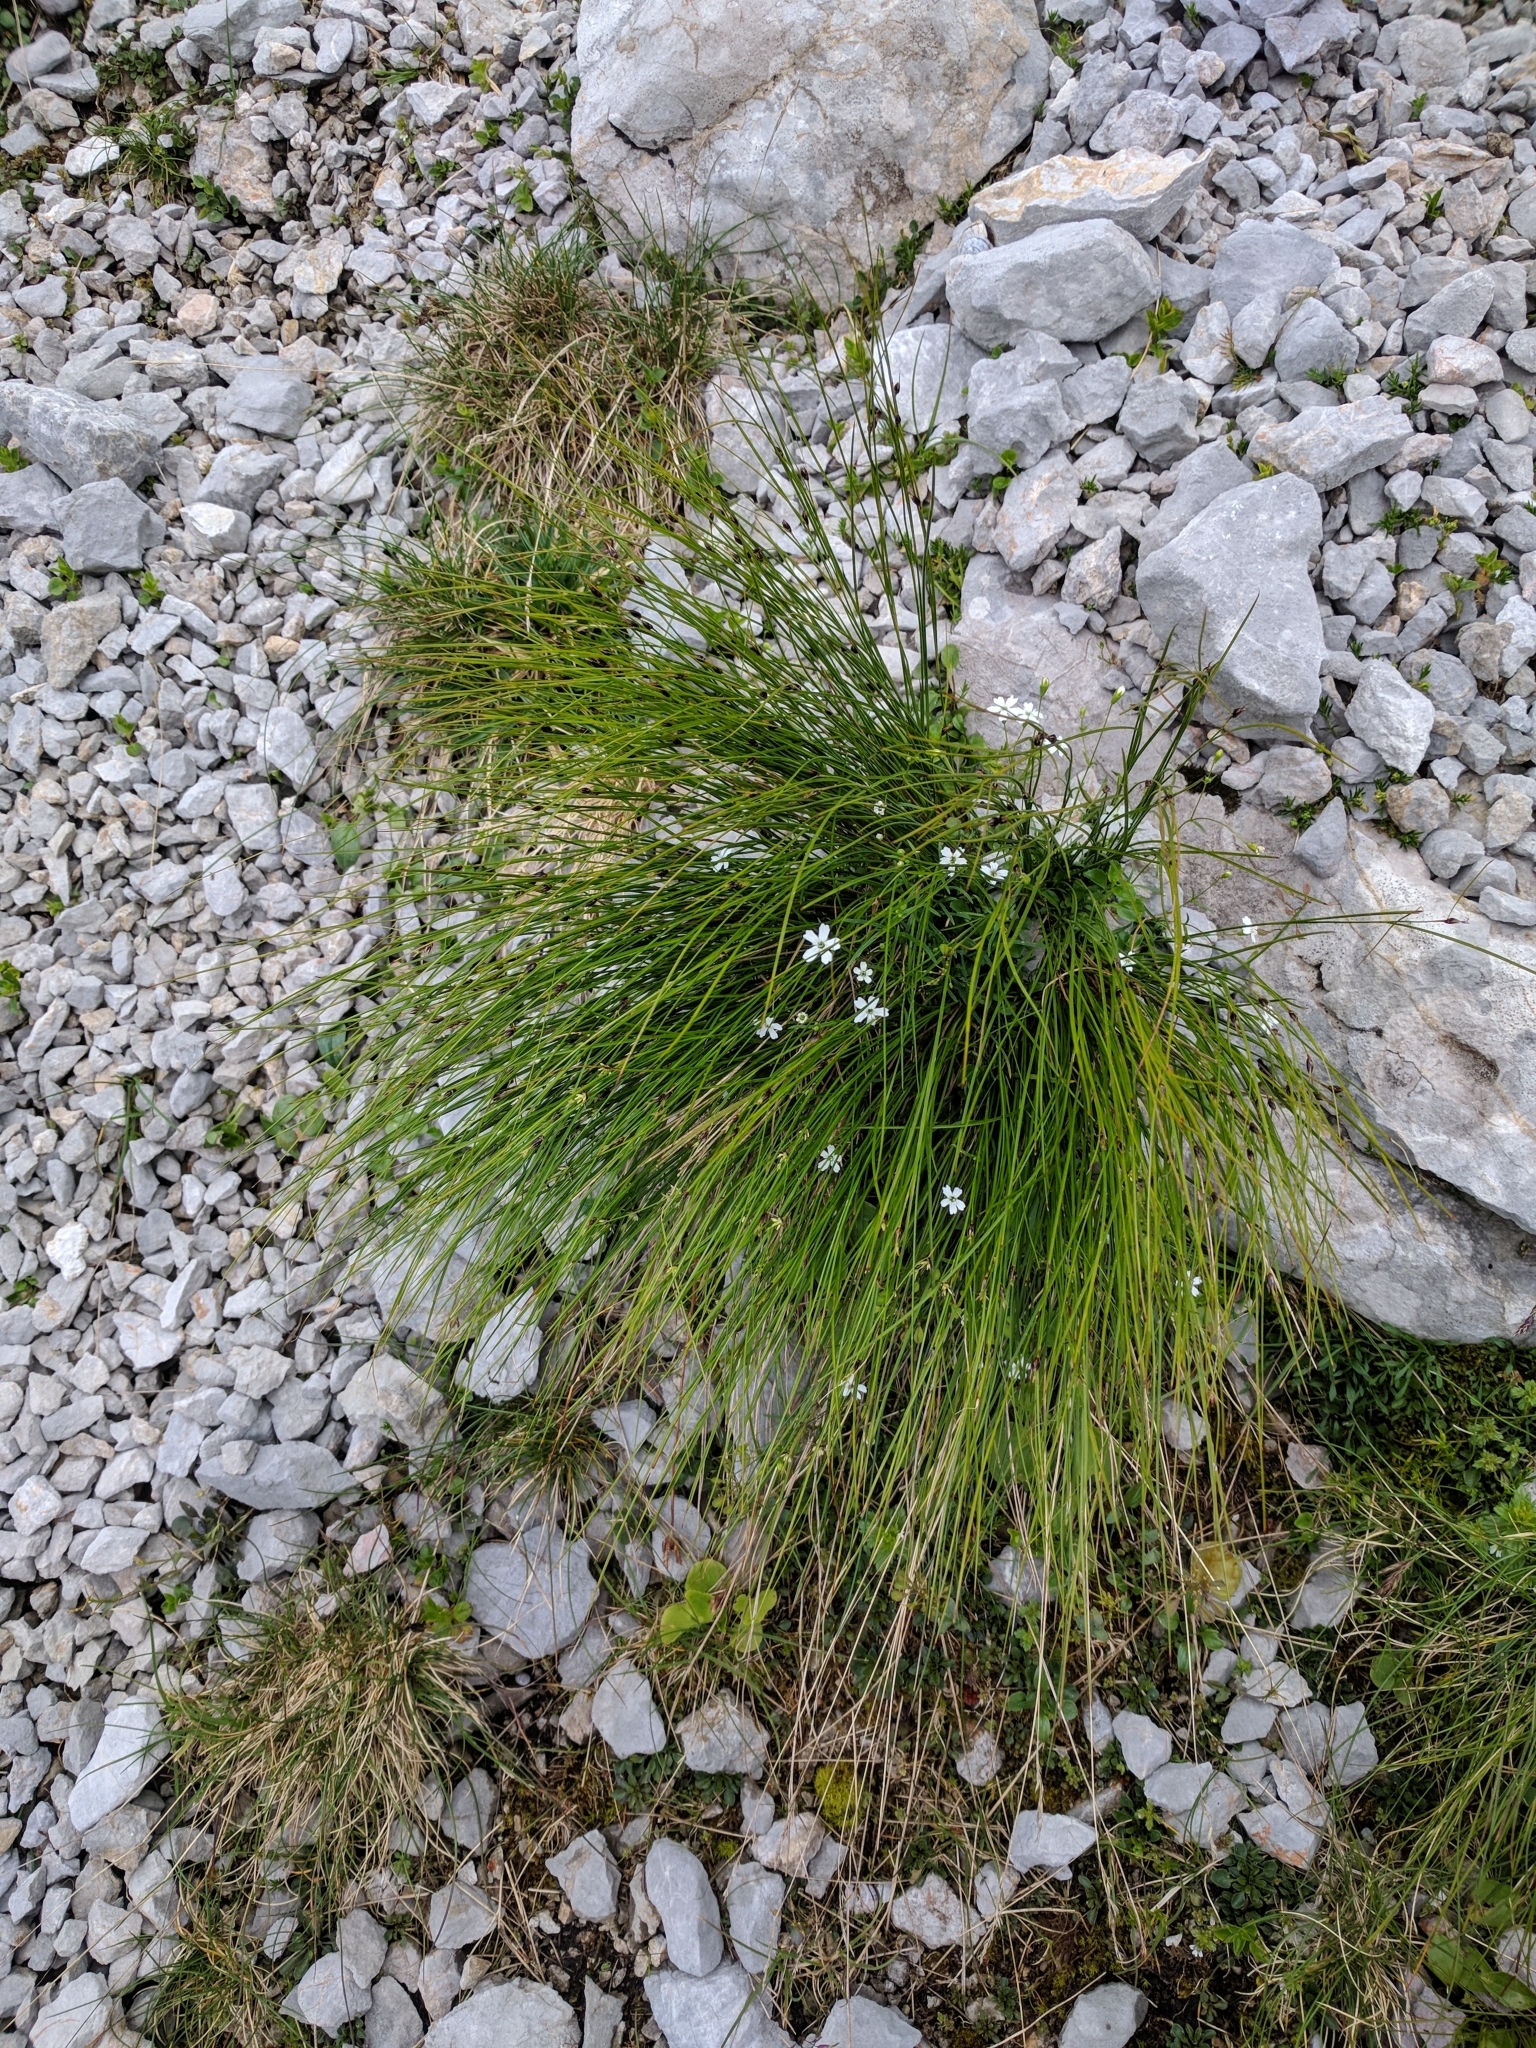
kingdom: Plantae
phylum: Tracheophyta
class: Magnoliopsida
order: Caryophyllales
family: Caryophyllaceae
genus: Heliosperma
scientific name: Heliosperma pusillum
